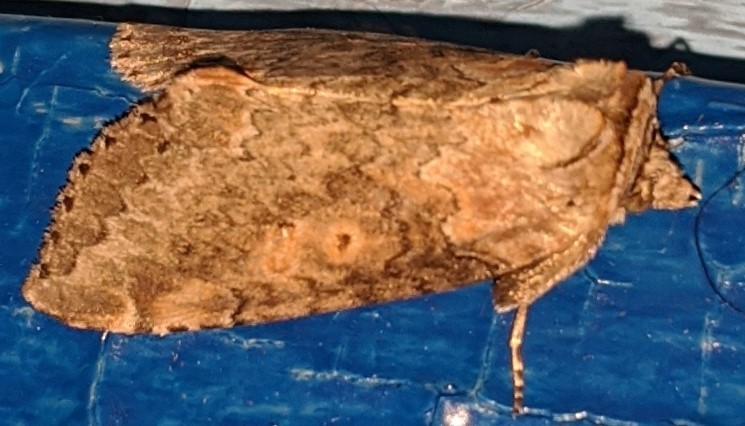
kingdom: Animalia
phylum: Arthropoda
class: Insecta
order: Lepidoptera
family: Drepanidae
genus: Pseudothyatira
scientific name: Pseudothyatira cymatophoroides
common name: Tufted thyatirid moth
